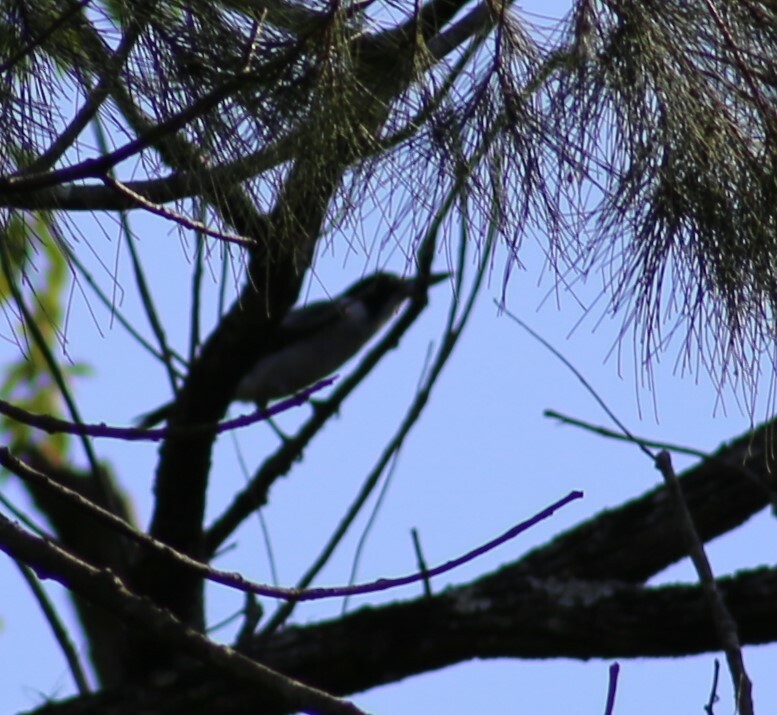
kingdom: Animalia
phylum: Chordata
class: Aves
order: Passeriformes
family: Cracticidae
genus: Cracticus
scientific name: Cracticus torquatus
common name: Grey butcherbird
